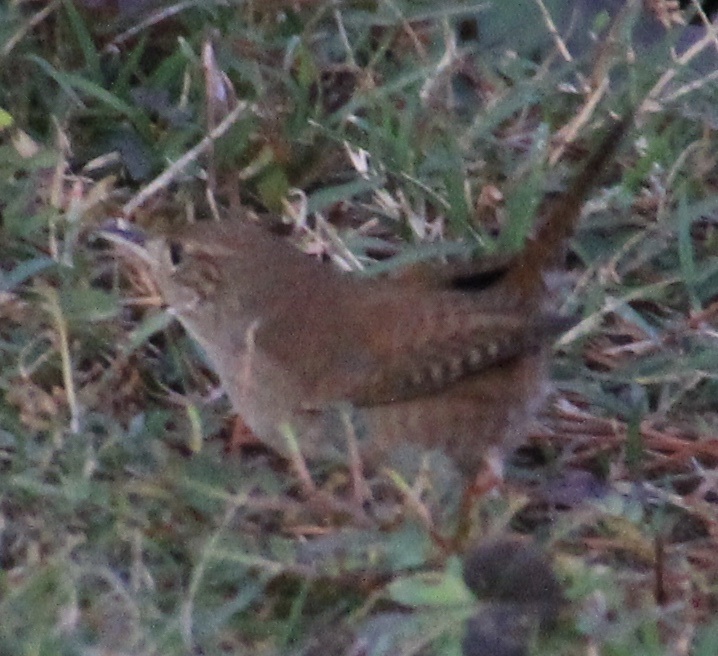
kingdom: Animalia
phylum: Chordata
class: Aves
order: Passeriformes
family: Troglodytidae
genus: Troglodytes
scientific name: Troglodytes aedon
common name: House wren
